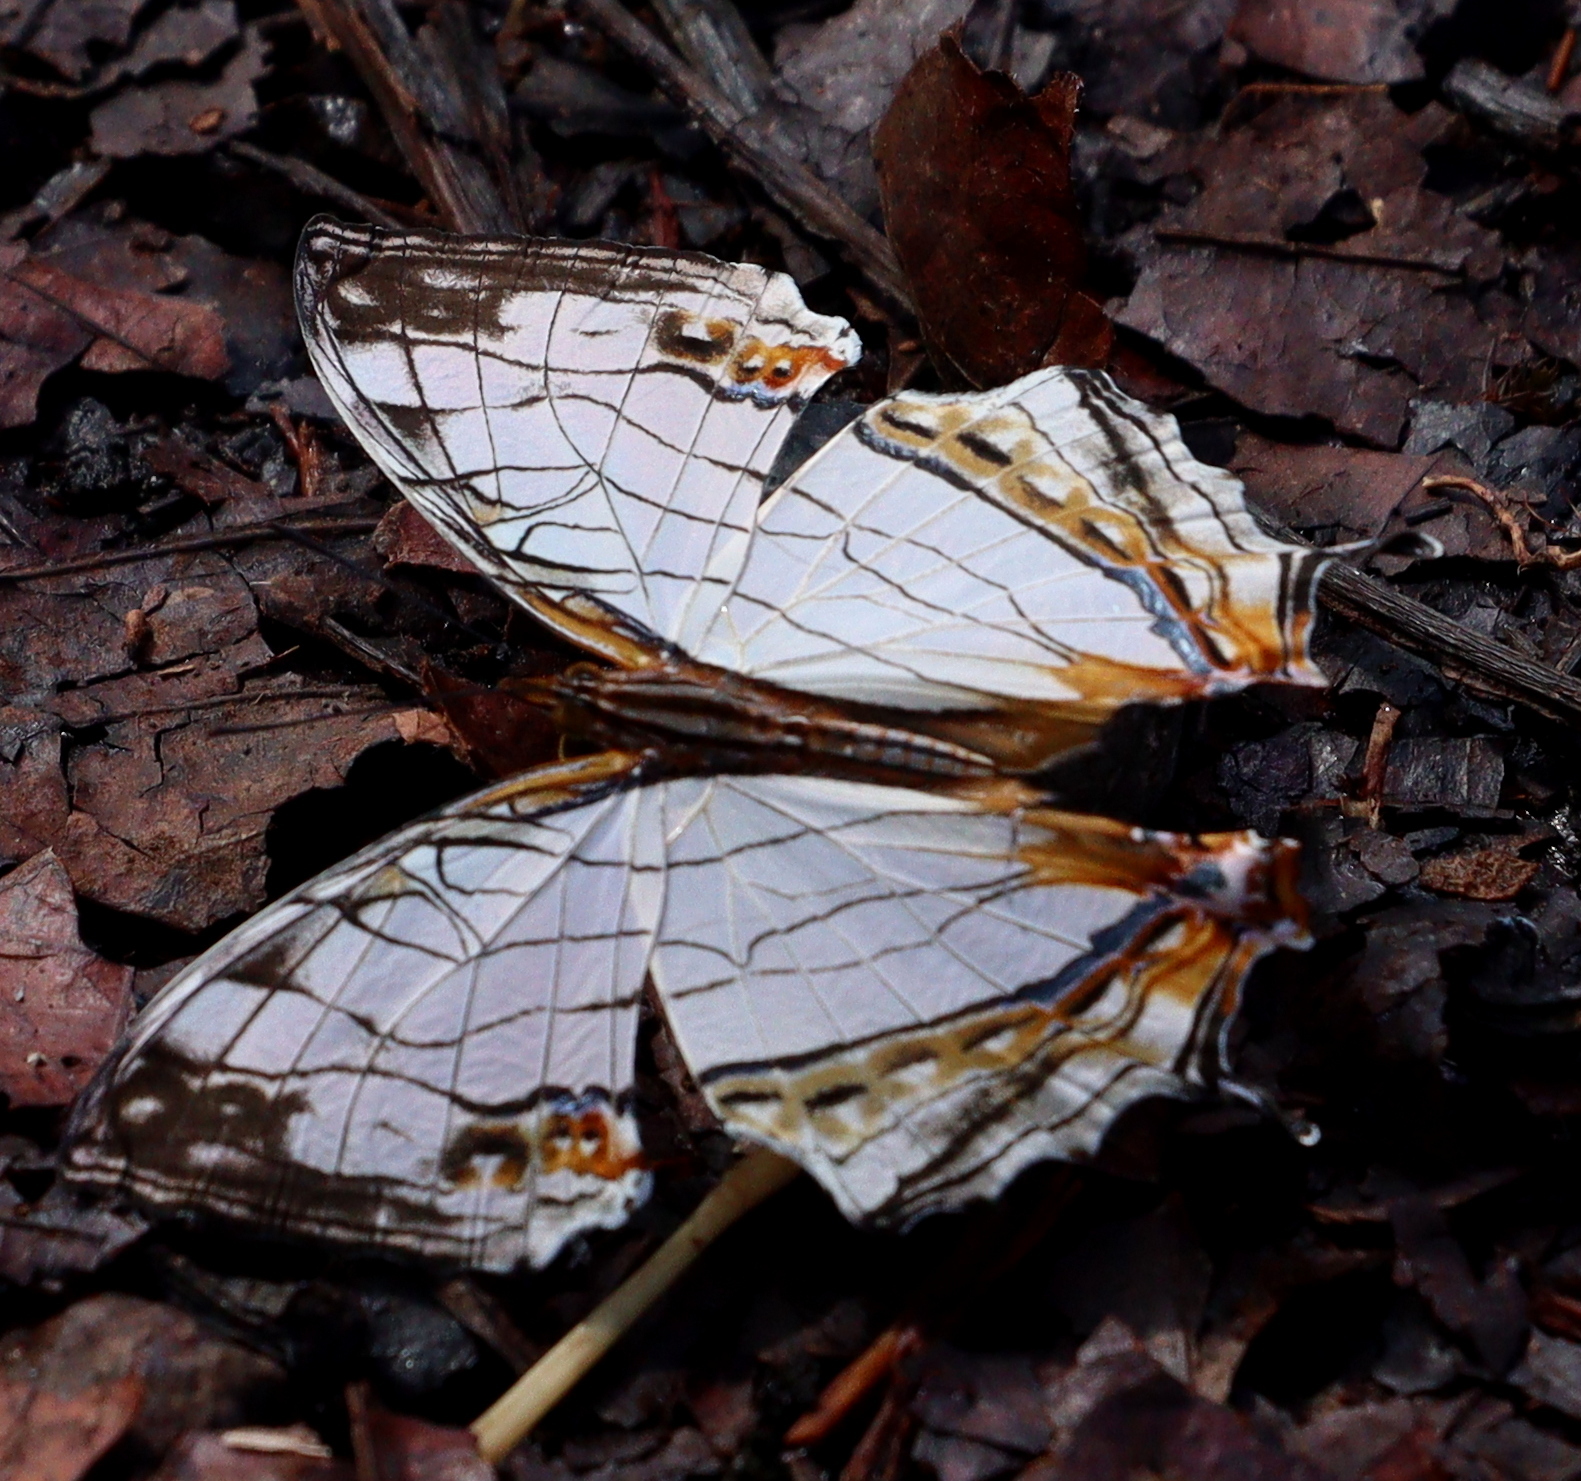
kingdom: Animalia
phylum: Arthropoda
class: Insecta
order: Lepidoptera
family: Nymphalidae
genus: Cyrestis
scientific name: Cyrestis thyodamas
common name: Common mapwing
